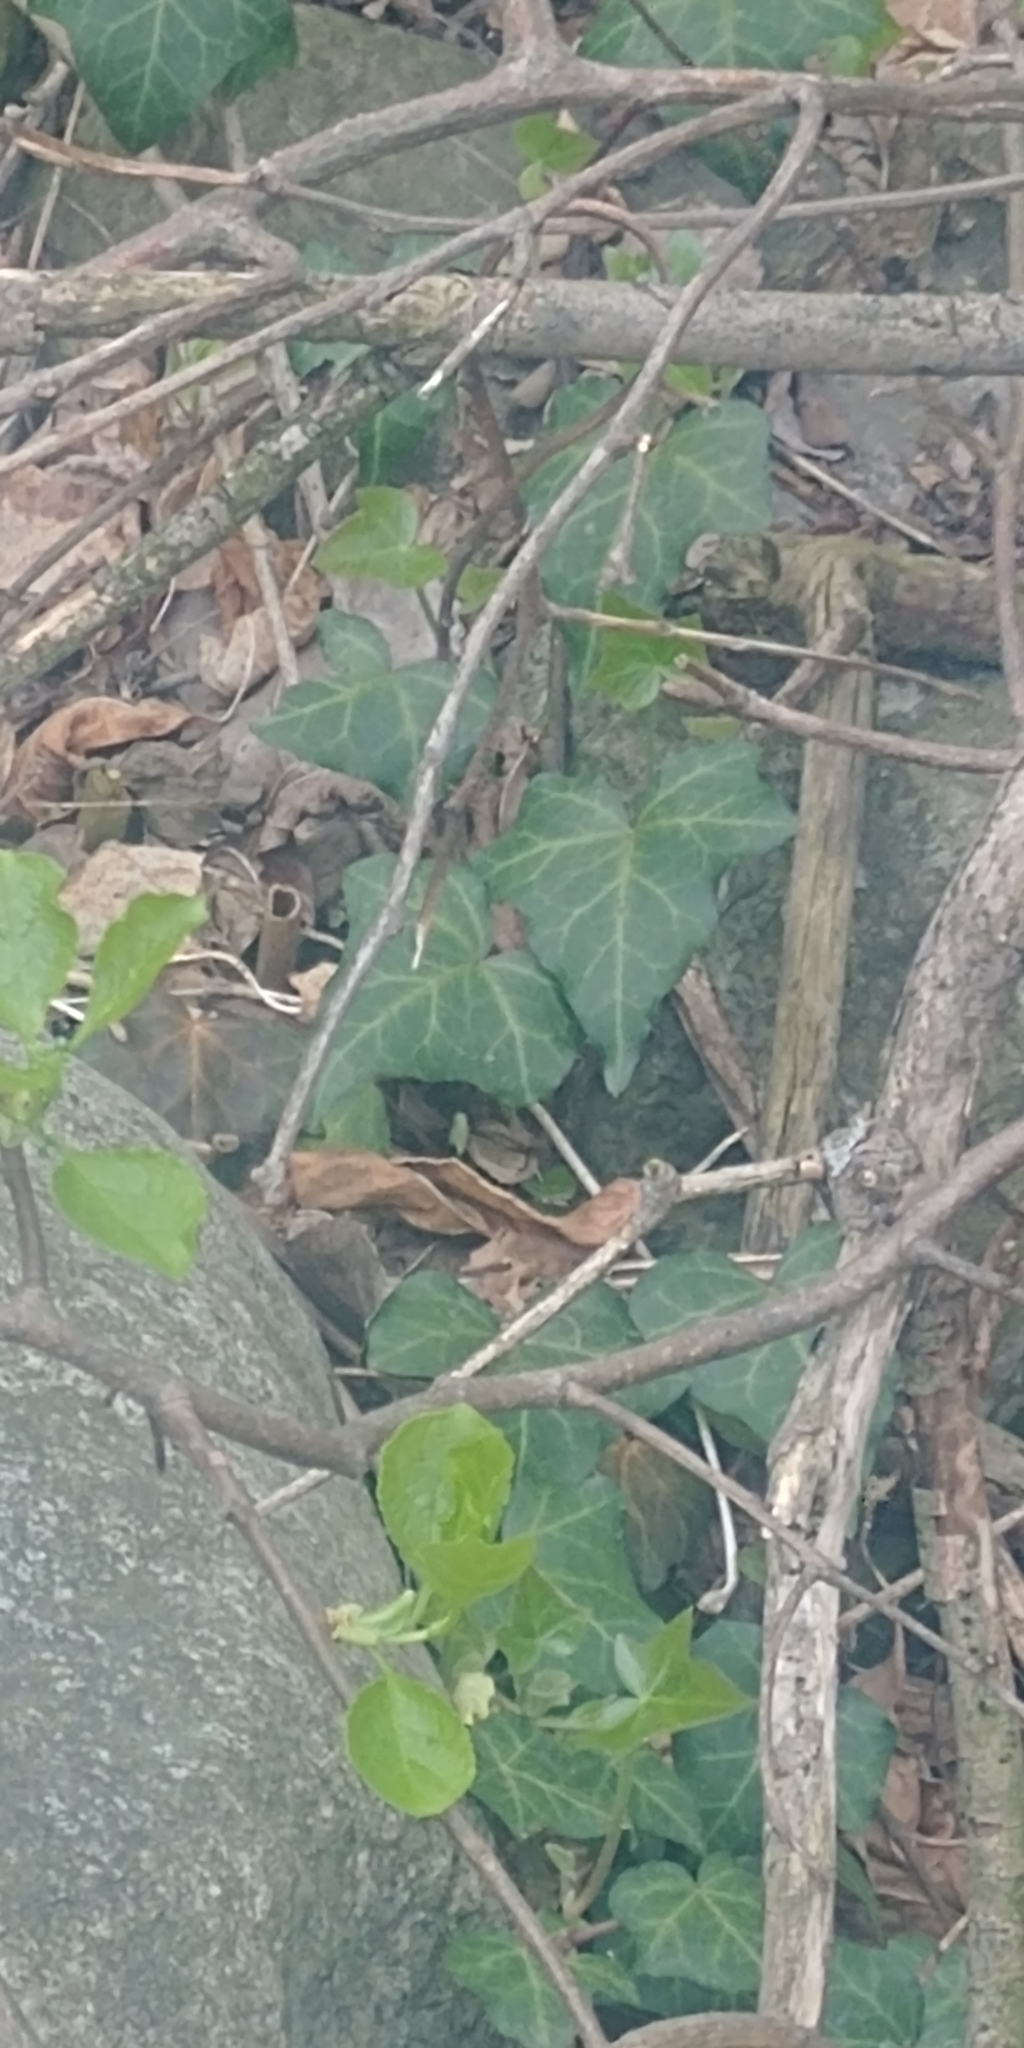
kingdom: Plantae
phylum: Tracheophyta
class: Magnoliopsida
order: Apiales
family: Araliaceae
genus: Hedera
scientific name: Hedera helix
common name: Ivy
